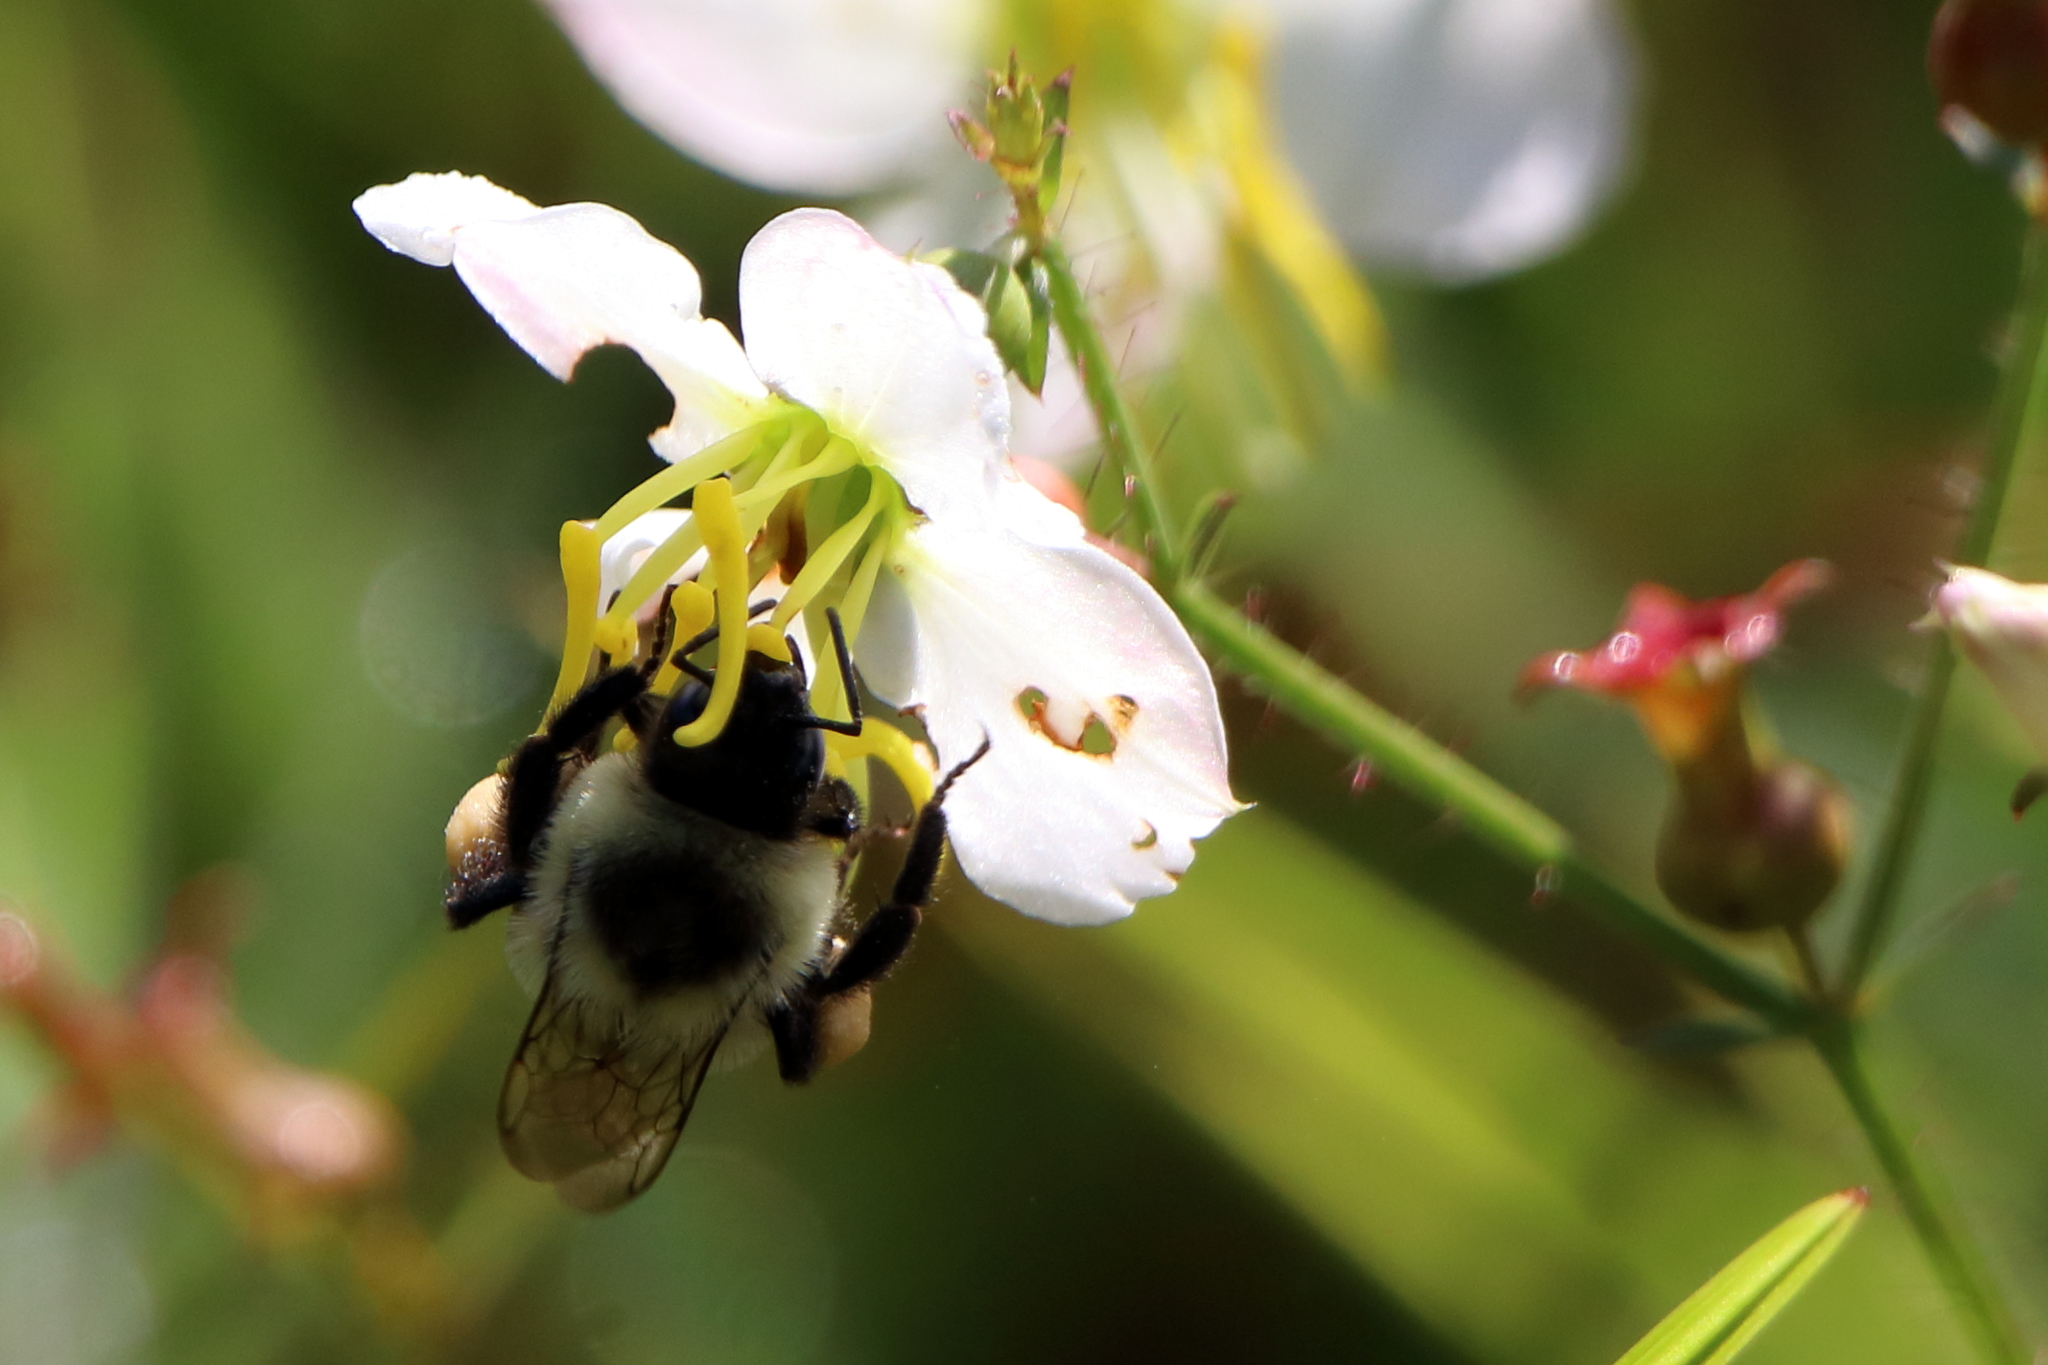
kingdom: Animalia
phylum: Arthropoda
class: Insecta
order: Hymenoptera
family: Apidae
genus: Bombus
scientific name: Bombus impatiens
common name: Common eastern bumble bee
